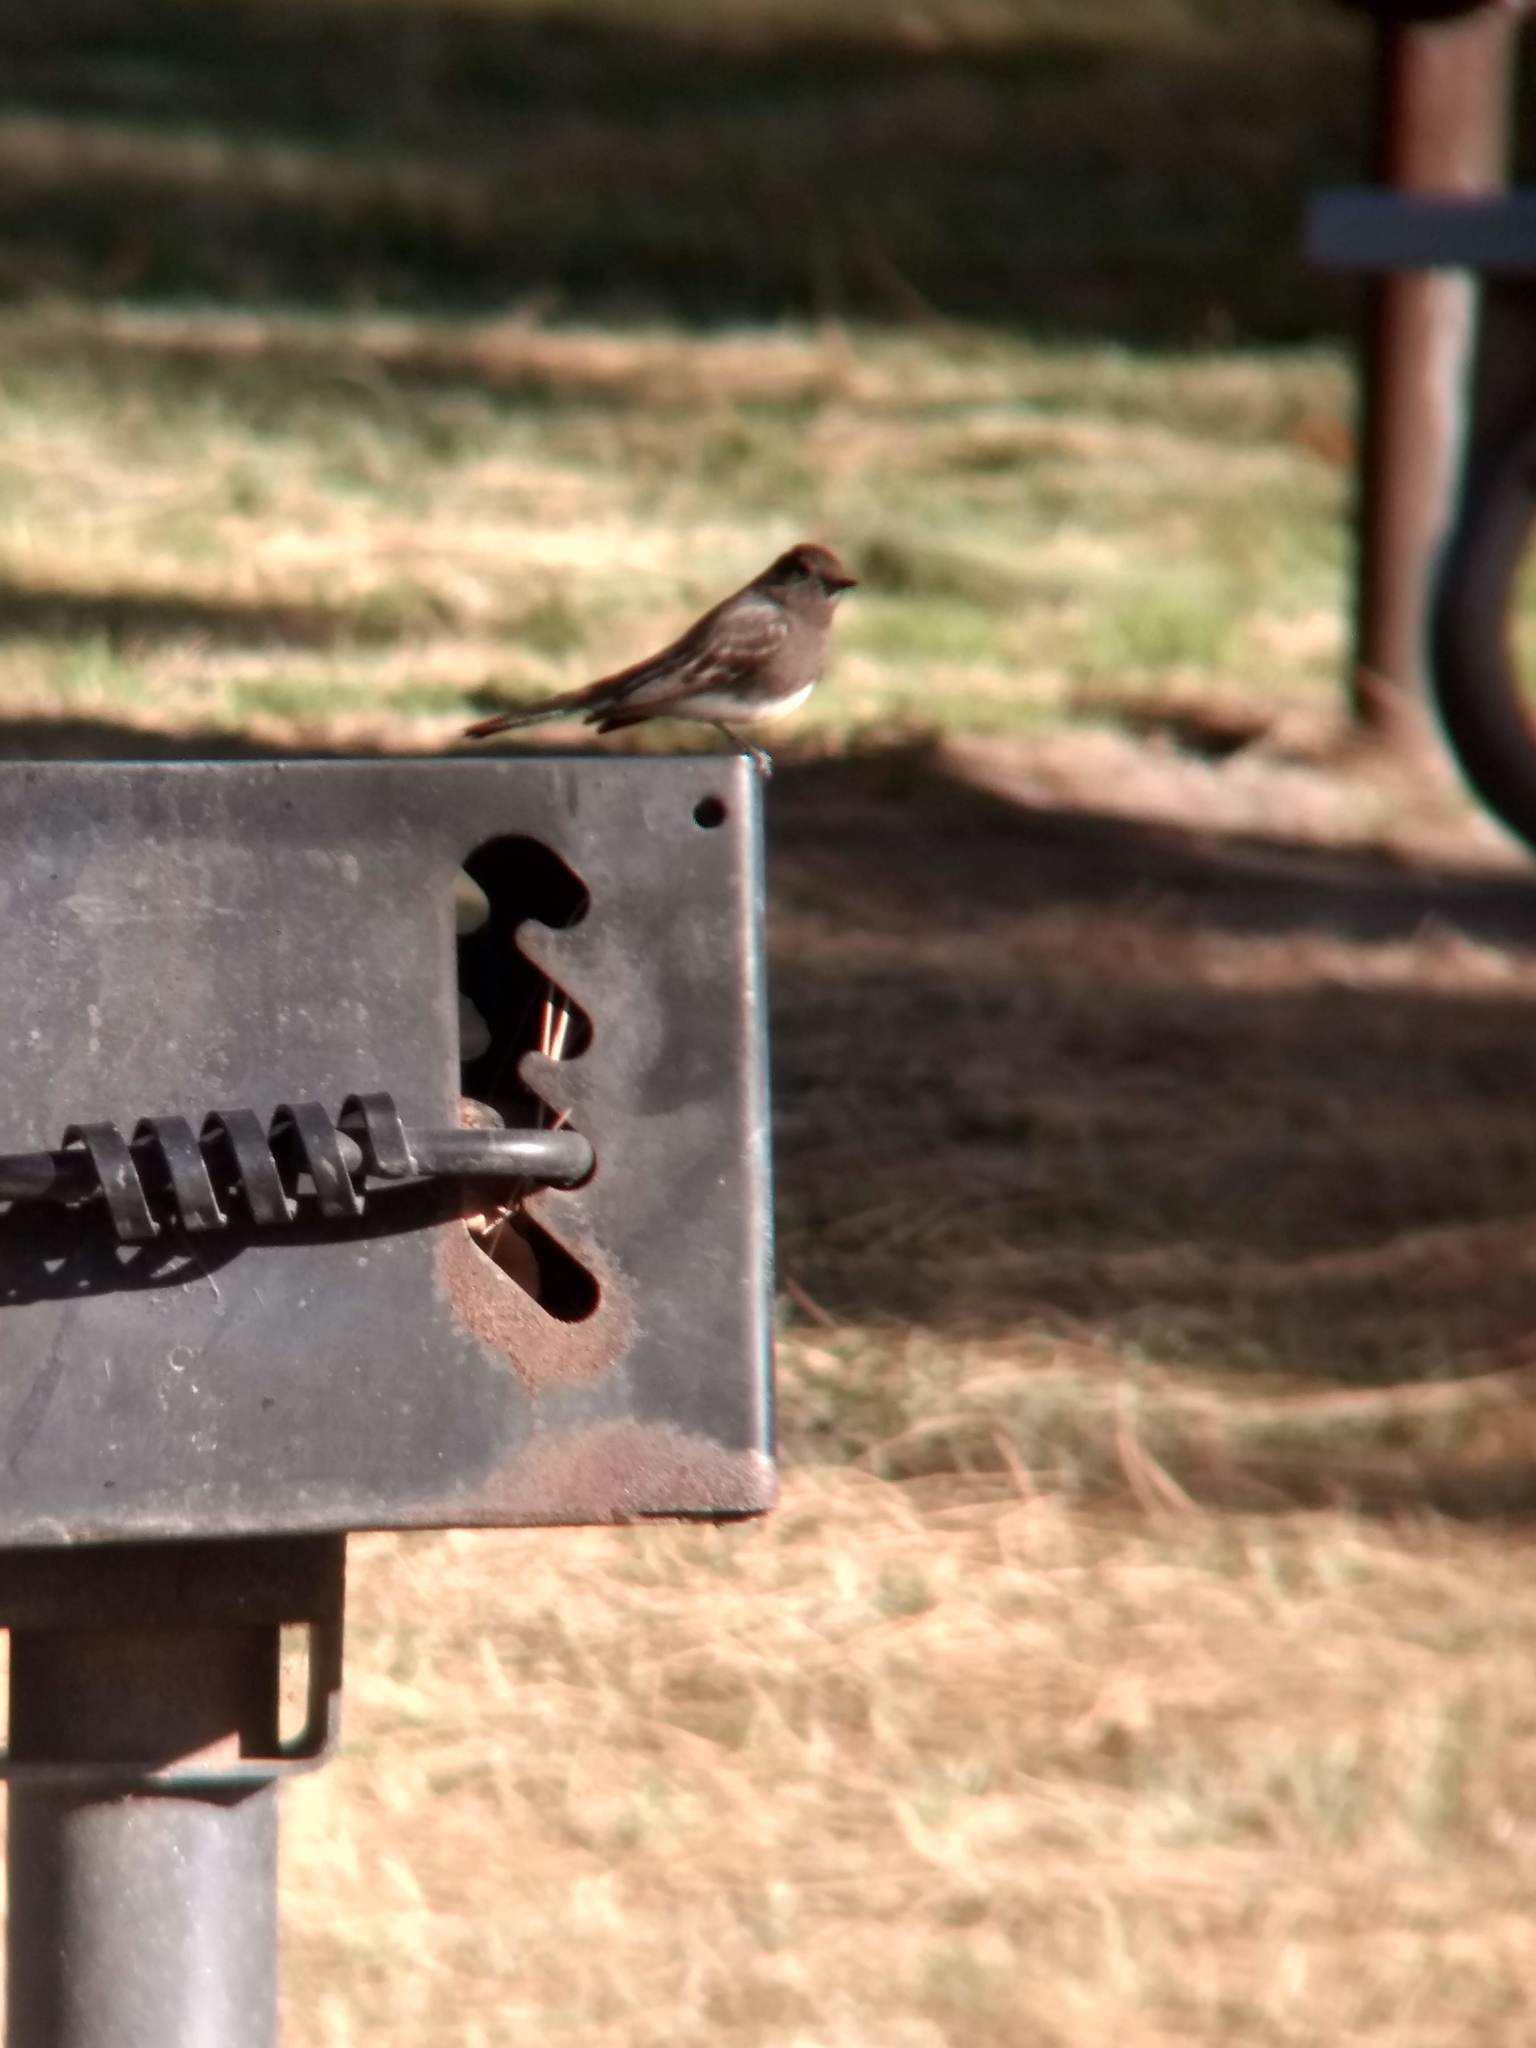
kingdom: Animalia
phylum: Chordata
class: Aves
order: Passeriformes
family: Tyrannidae
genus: Sayornis
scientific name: Sayornis nigricans
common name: Black phoebe
